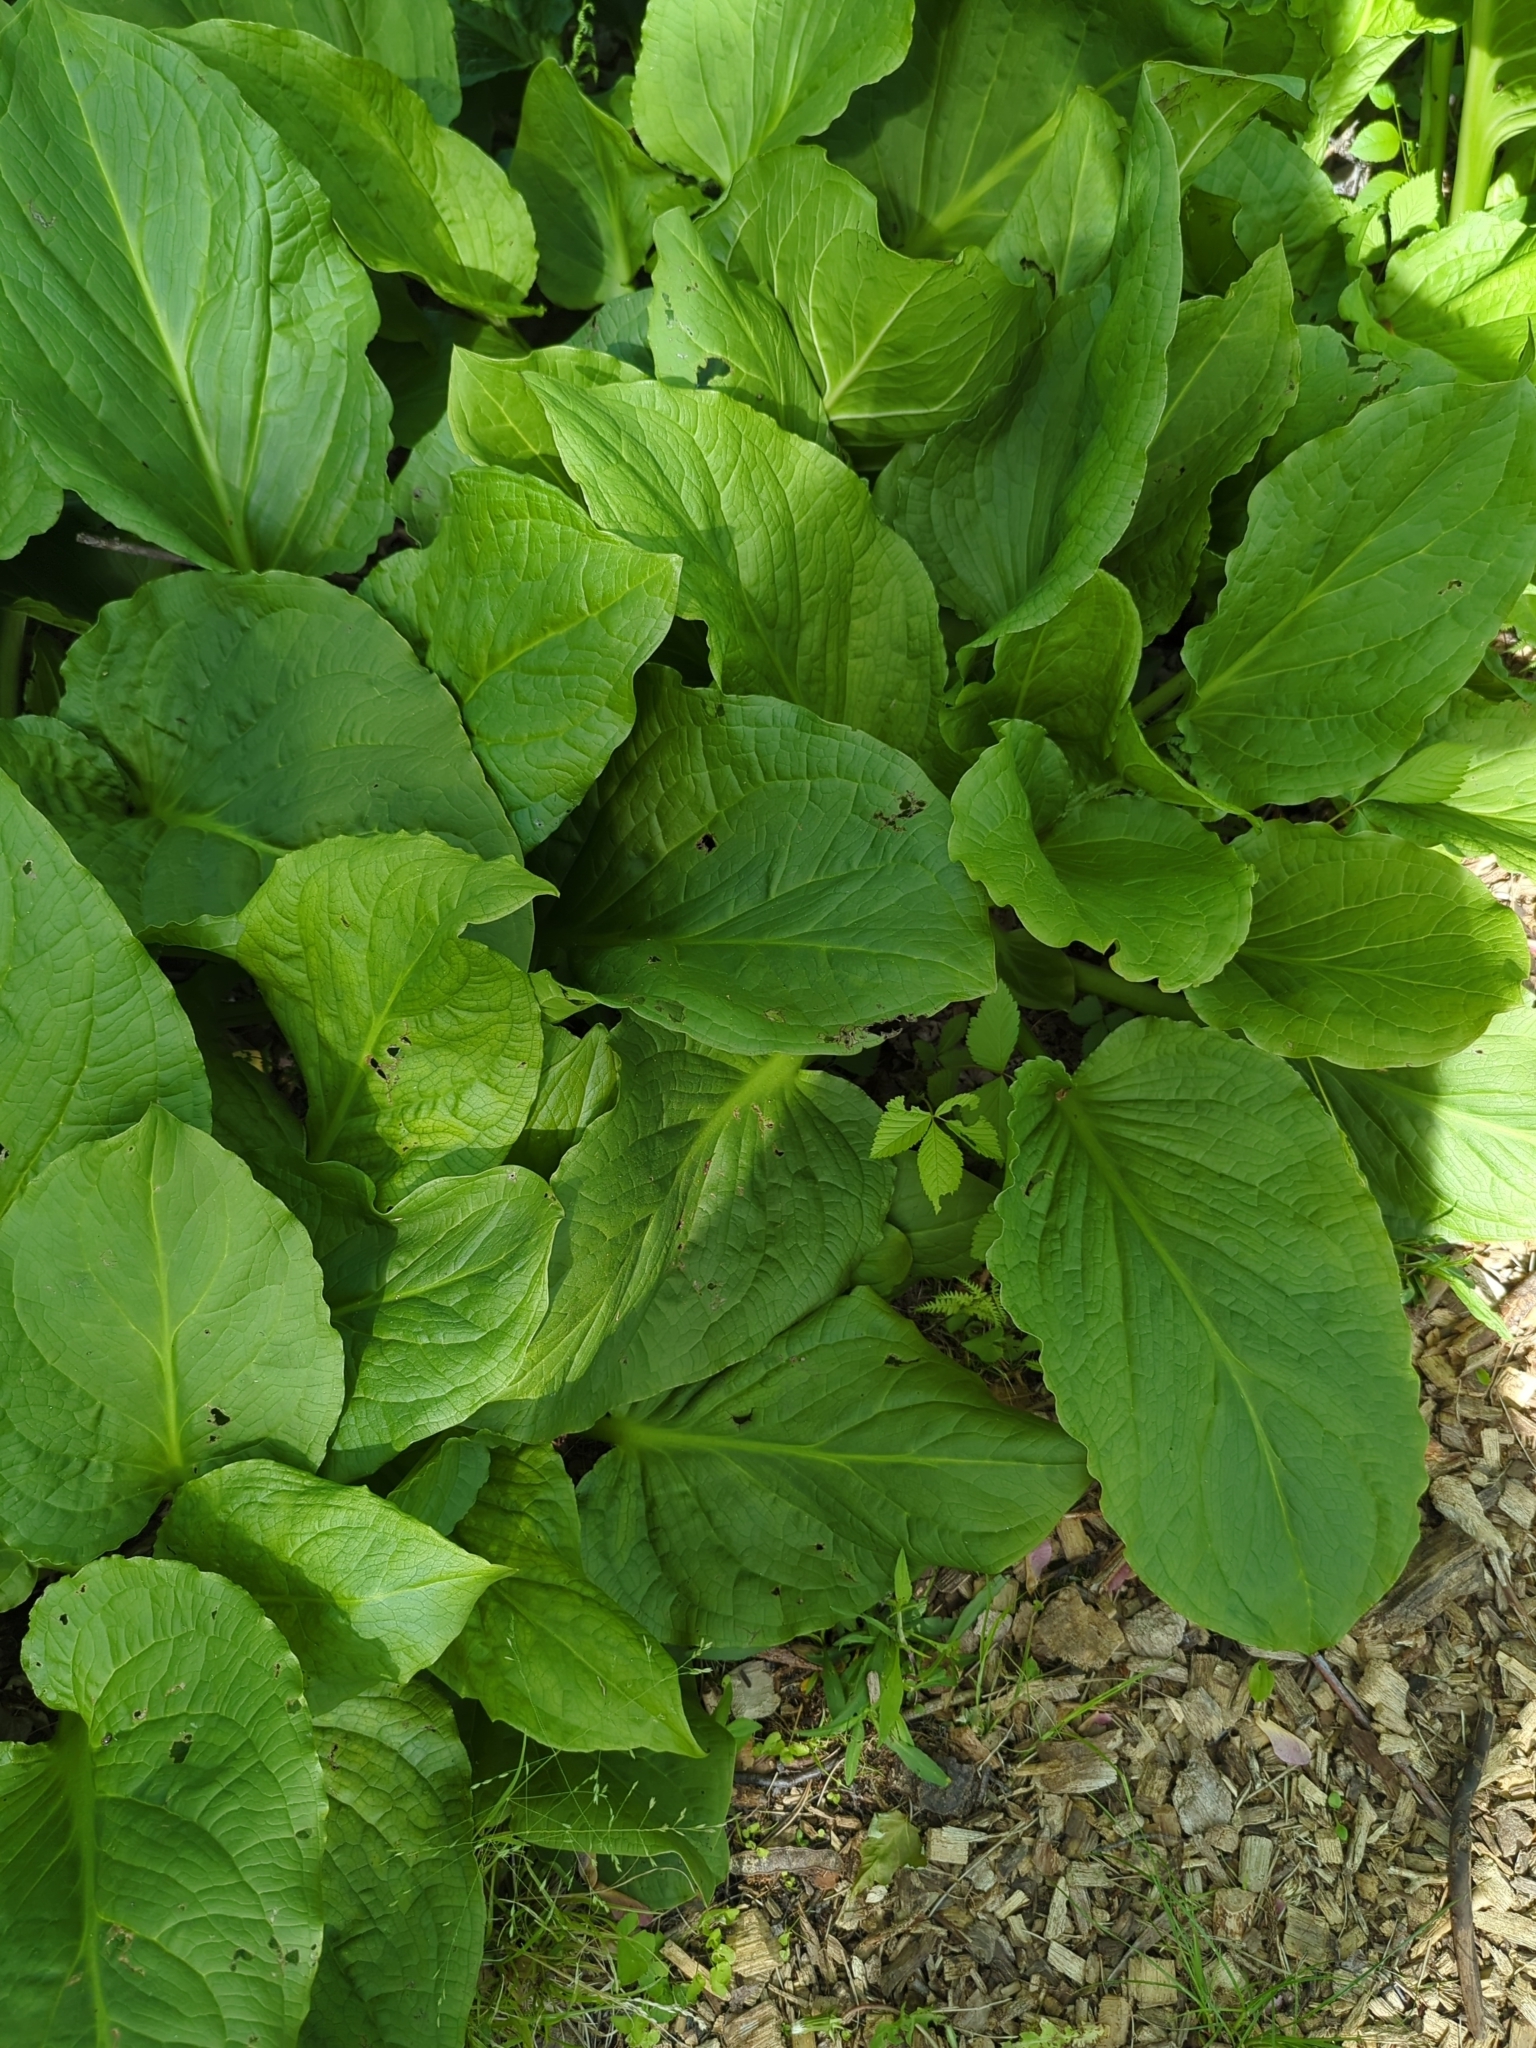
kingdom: Plantae
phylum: Tracheophyta
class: Liliopsida
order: Alismatales
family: Araceae
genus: Symplocarpus
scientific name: Symplocarpus foetidus
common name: Eastern skunk cabbage
